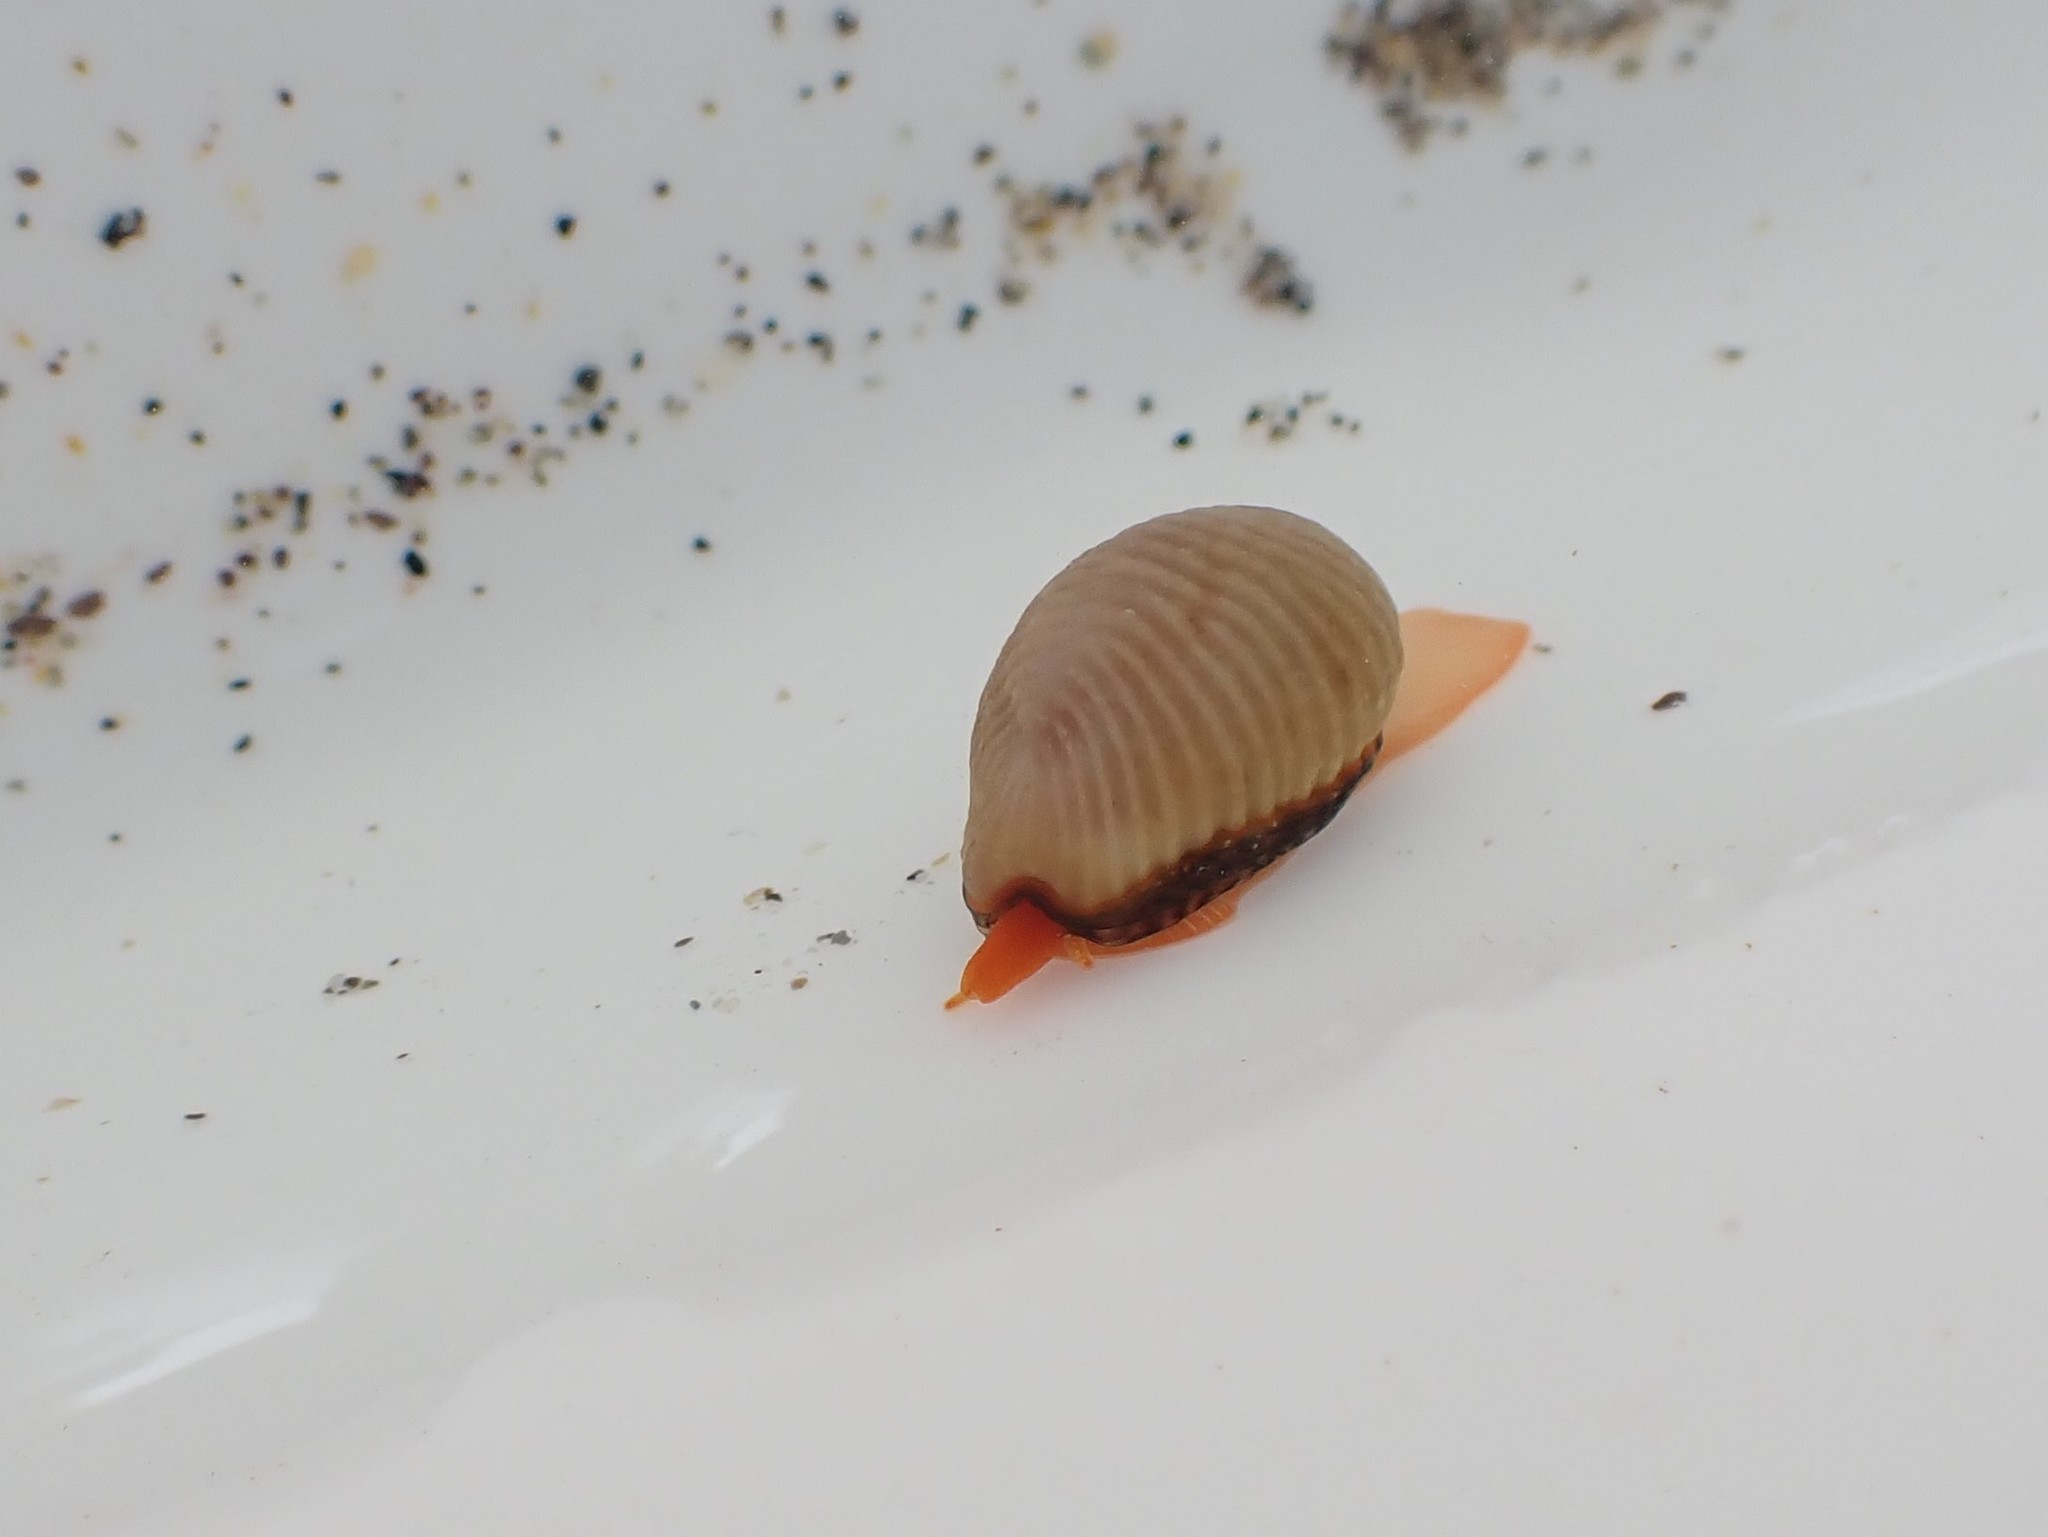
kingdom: Animalia
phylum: Mollusca
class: Gastropoda
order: Littorinimorpha
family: Triviidae
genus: Trivia
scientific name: Trivia arctica
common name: Arctic cowrie
